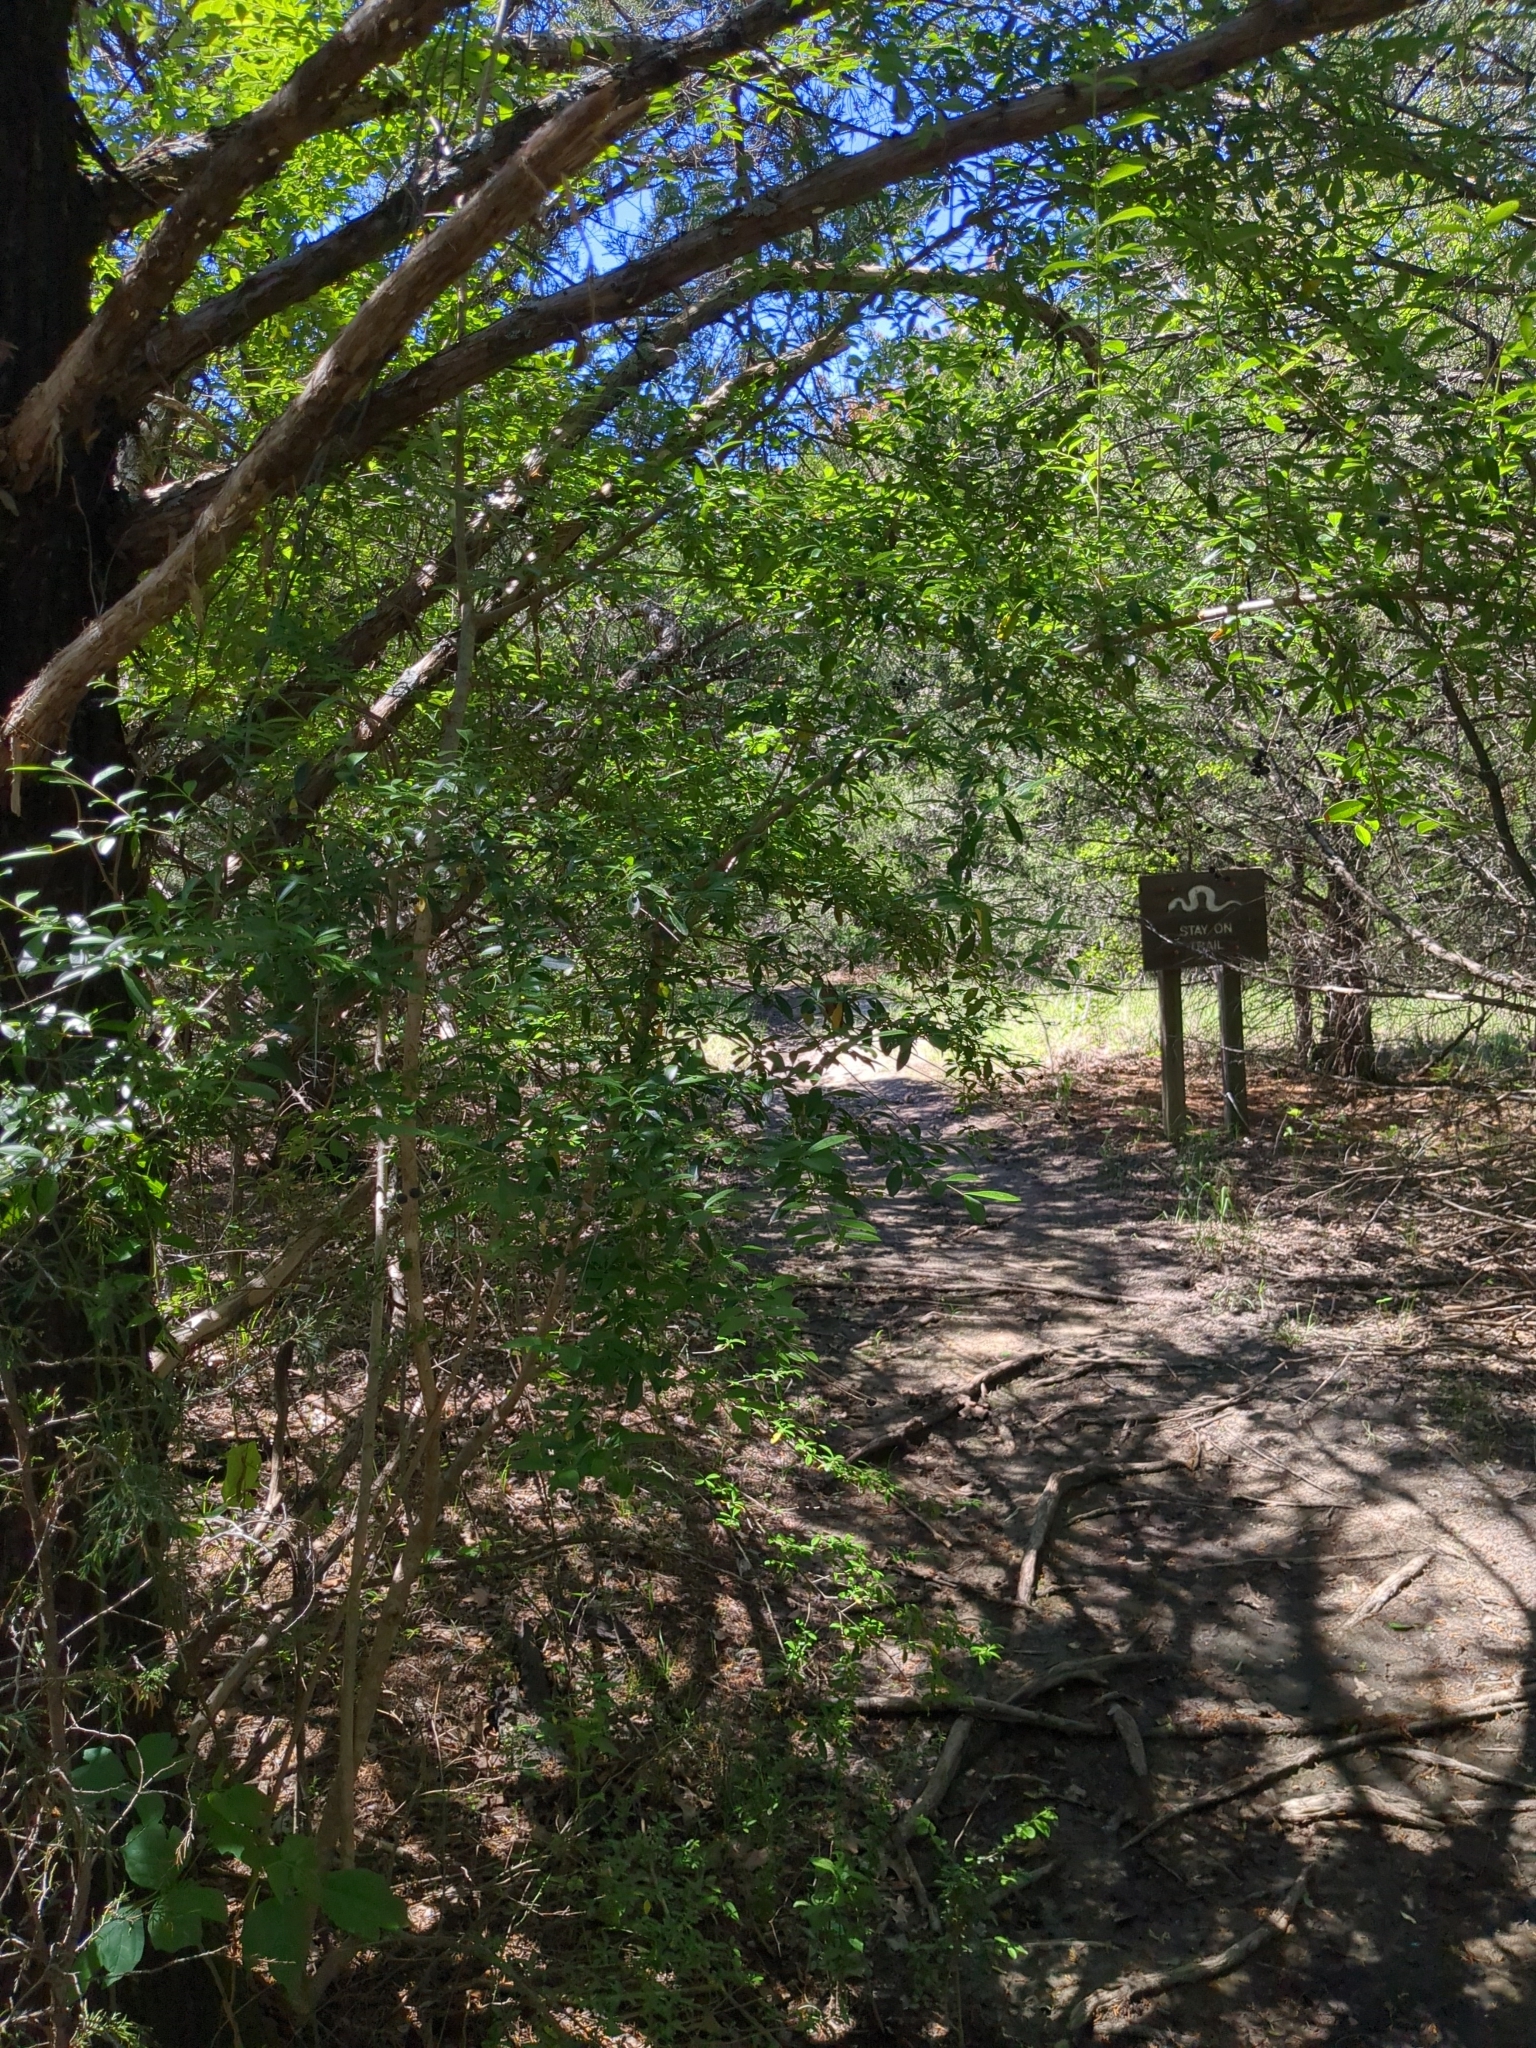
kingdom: Plantae
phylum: Tracheophyta
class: Magnoliopsida
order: Lamiales
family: Oleaceae
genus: Ligustrum
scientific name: Ligustrum quihoui
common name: Waxyleaf privet
